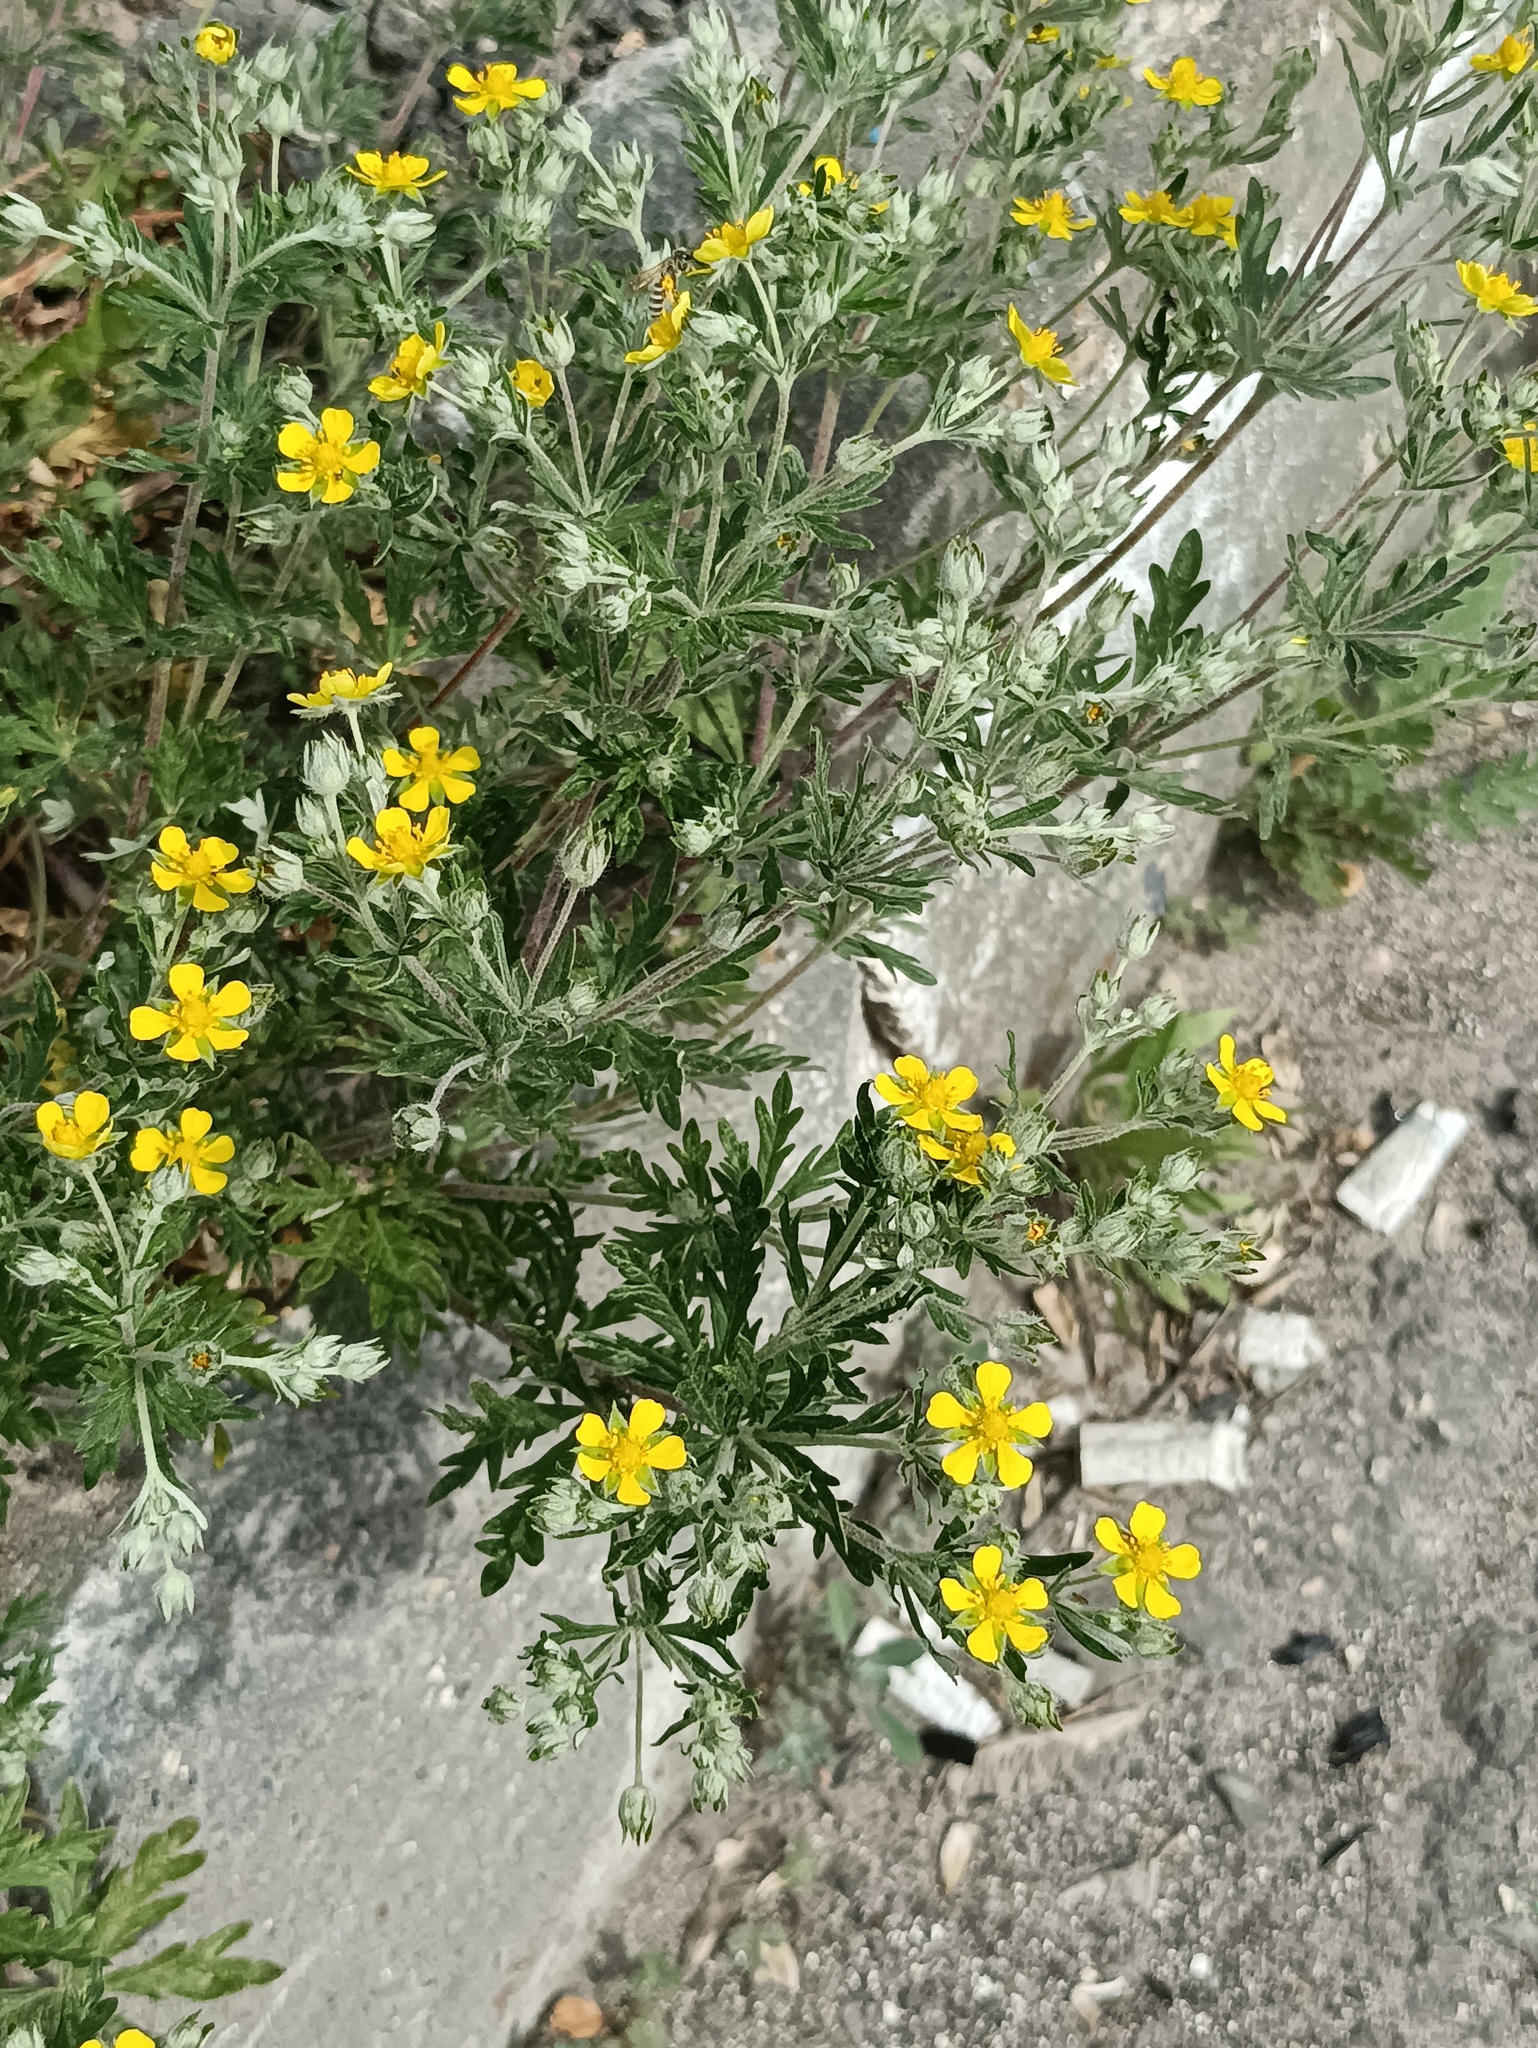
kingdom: Plantae
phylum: Tracheophyta
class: Magnoliopsida
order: Rosales
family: Rosaceae
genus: Potentilla
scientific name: Potentilla argentea
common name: Hoary cinquefoil
